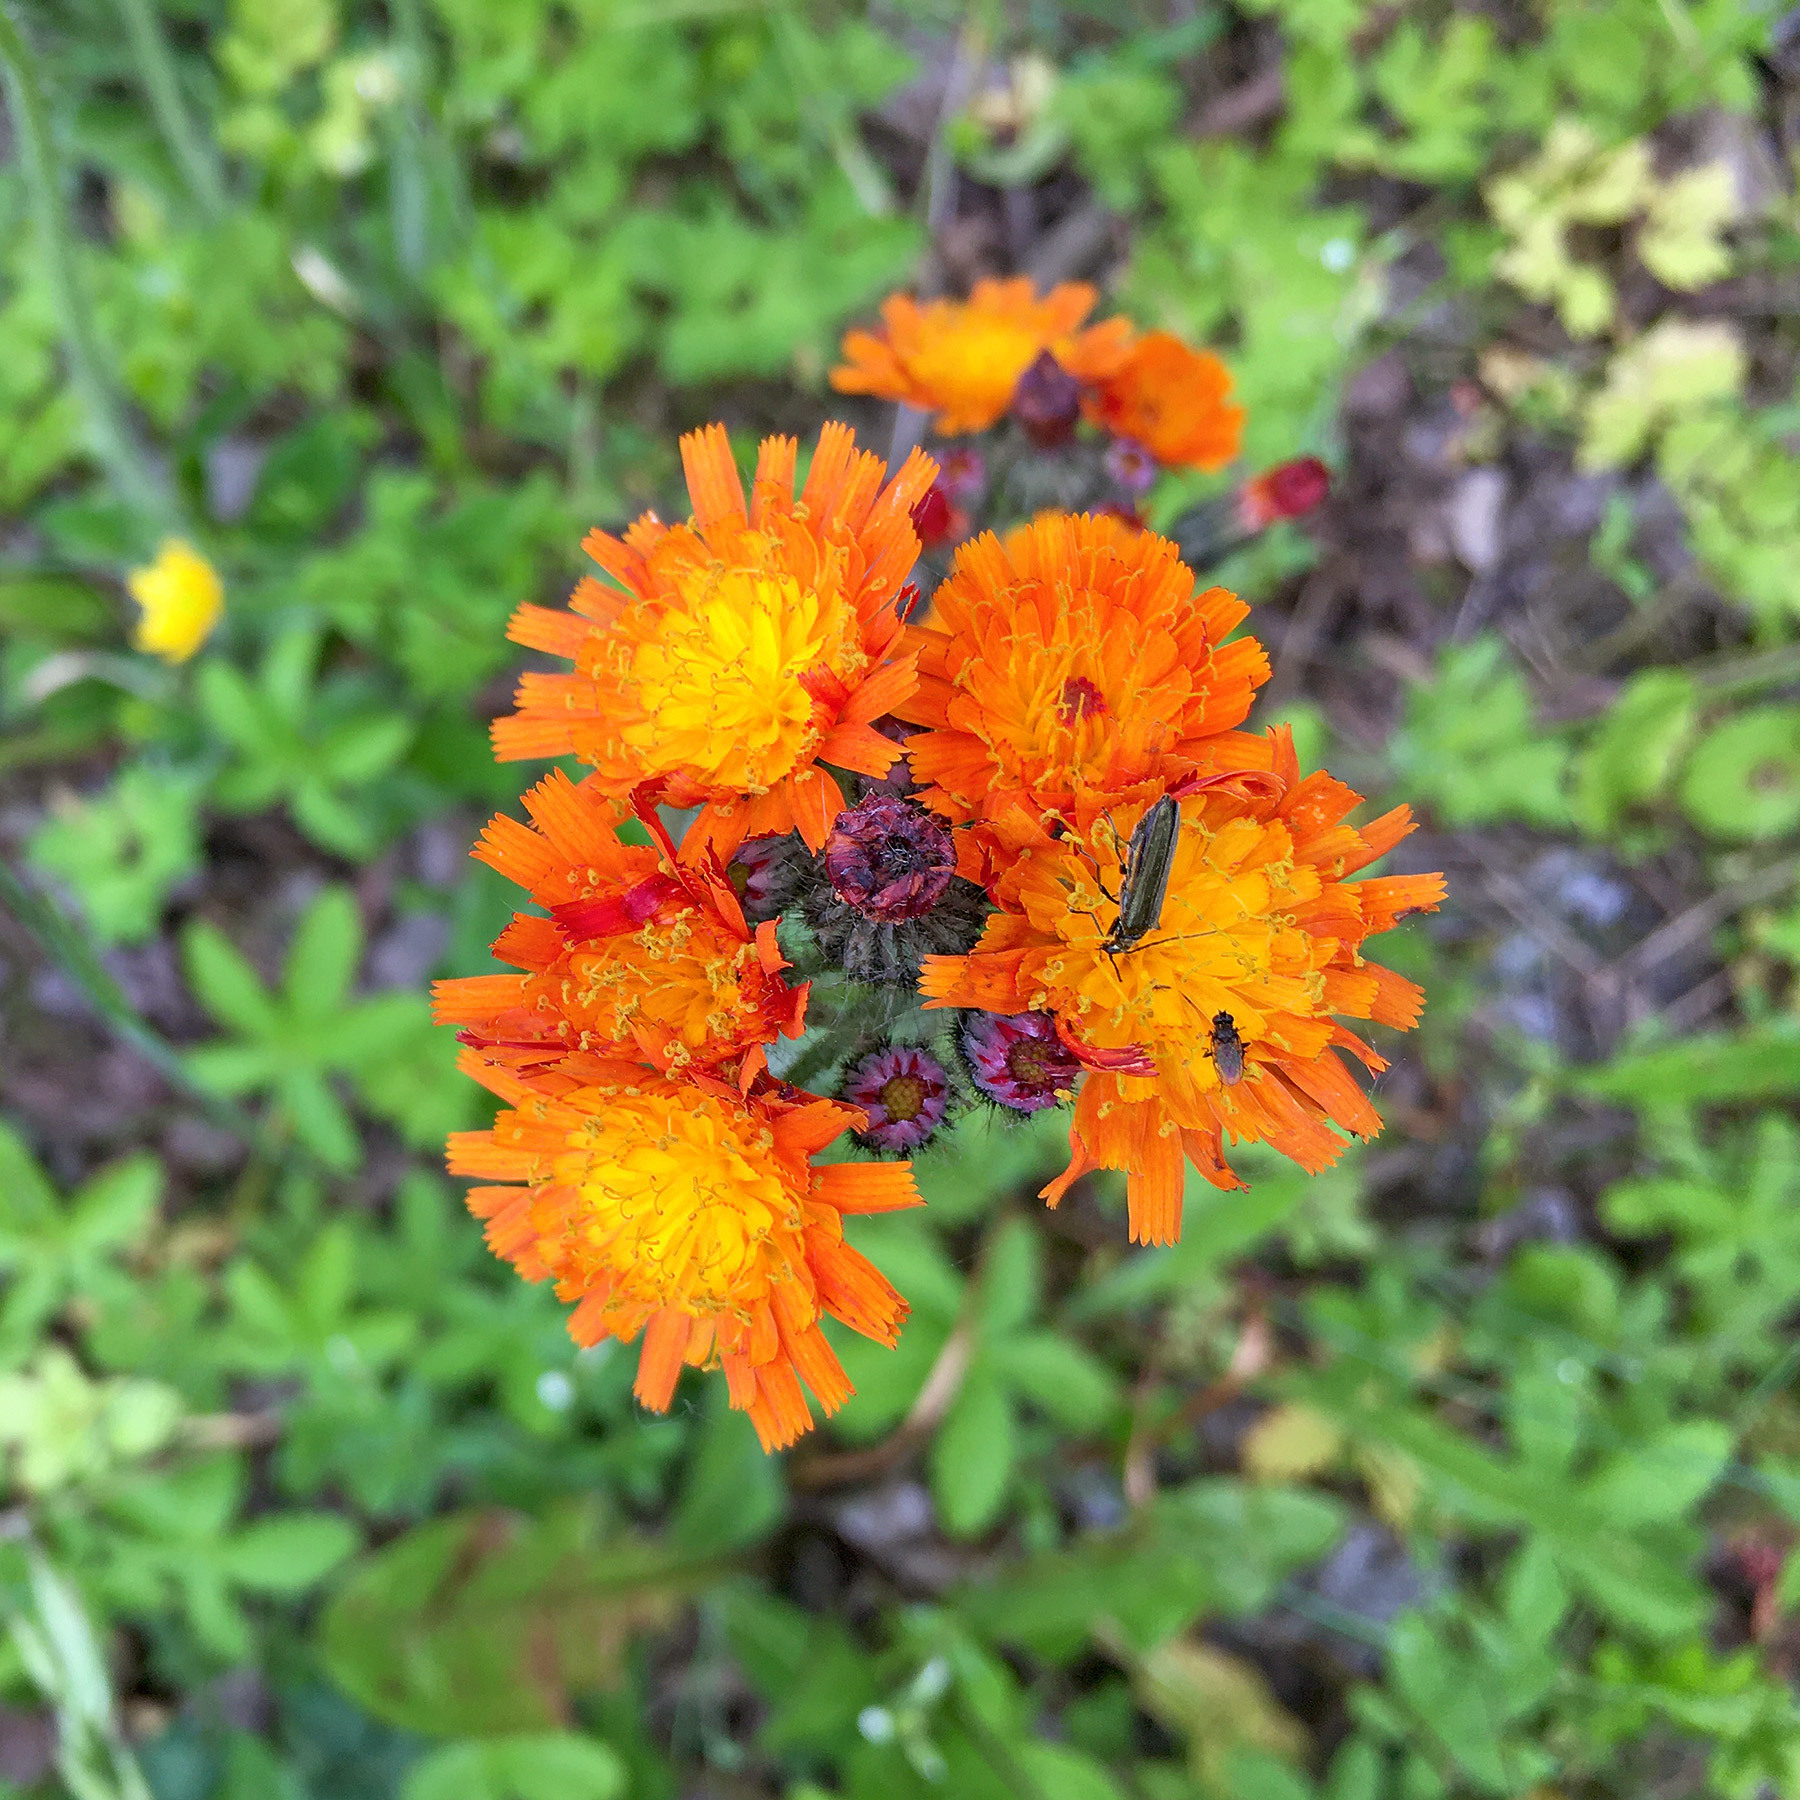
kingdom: Plantae
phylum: Tracheophyta
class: Magnoliopsida
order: Asterales
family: Asteraceae
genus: Pilosella
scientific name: Pilosella aurantiaca
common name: Fox-and-cubs
